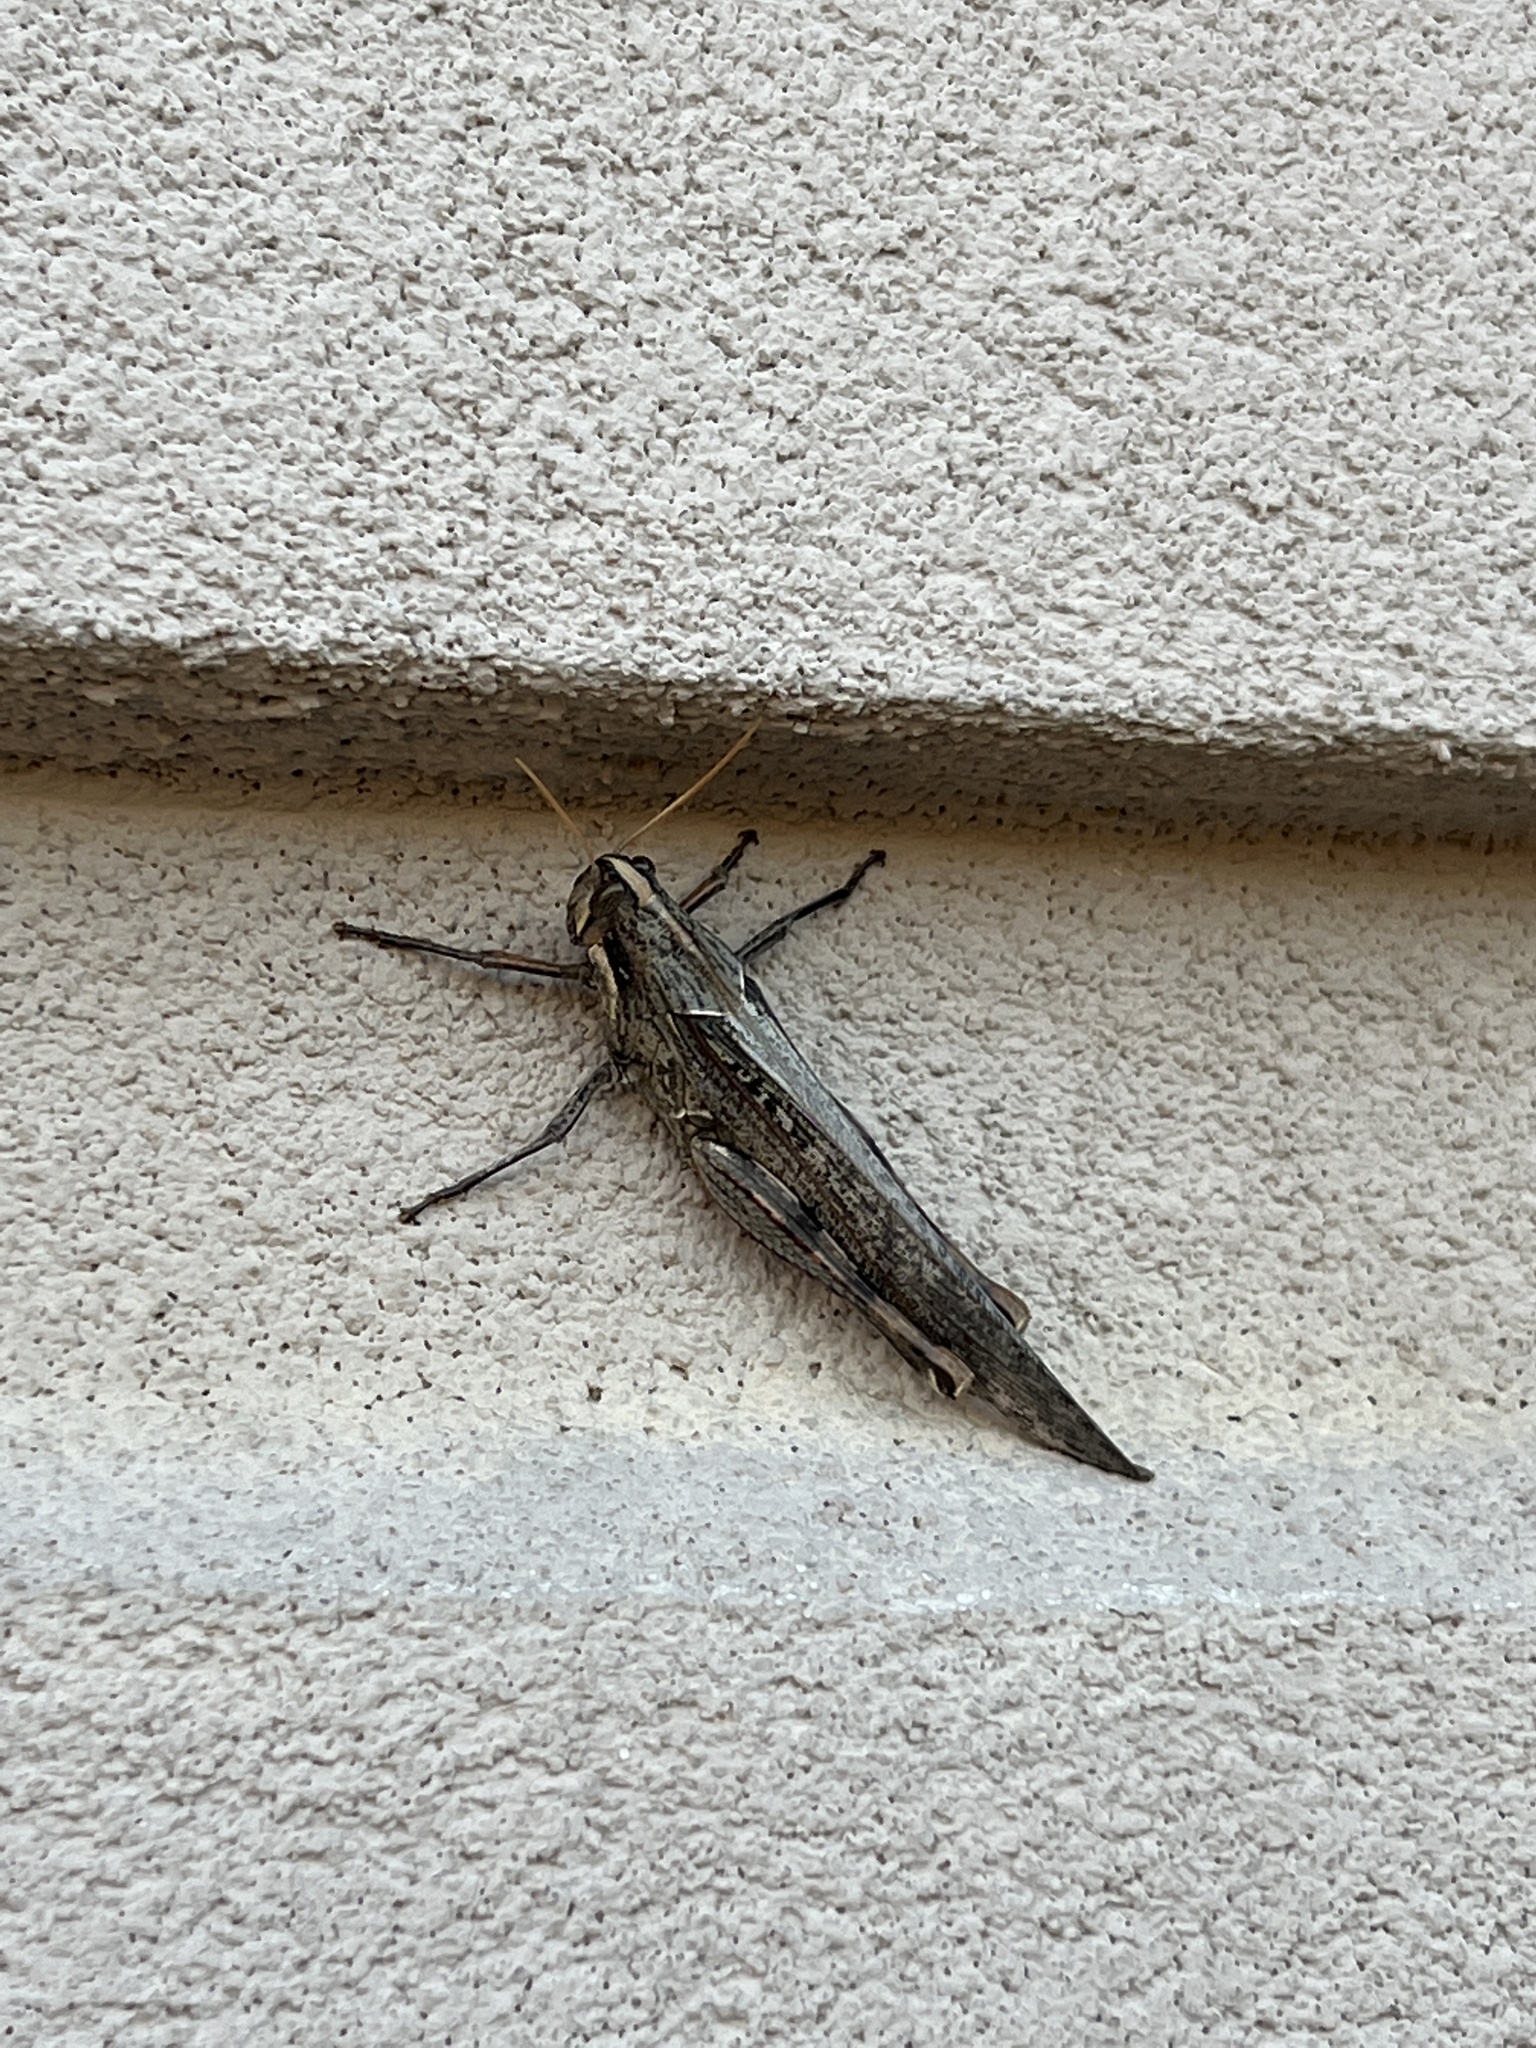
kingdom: Animalia
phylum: Arthropoda
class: Insecta
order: Orthoptera
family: Acrididae
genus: Schistocerca
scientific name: Schistocerca nitens
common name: Vagrant grasshopper
